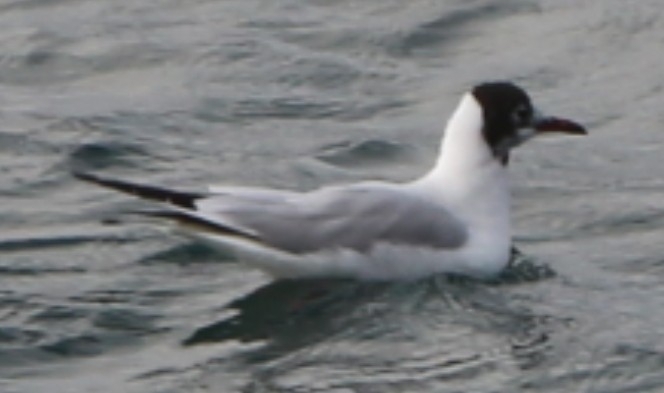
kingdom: Animalia
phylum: Chordata
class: Aves
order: Charadriiformes
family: Laridae
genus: Chroicocephalus
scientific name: Chroicocephalus ridibundus
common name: Black-headed gull
